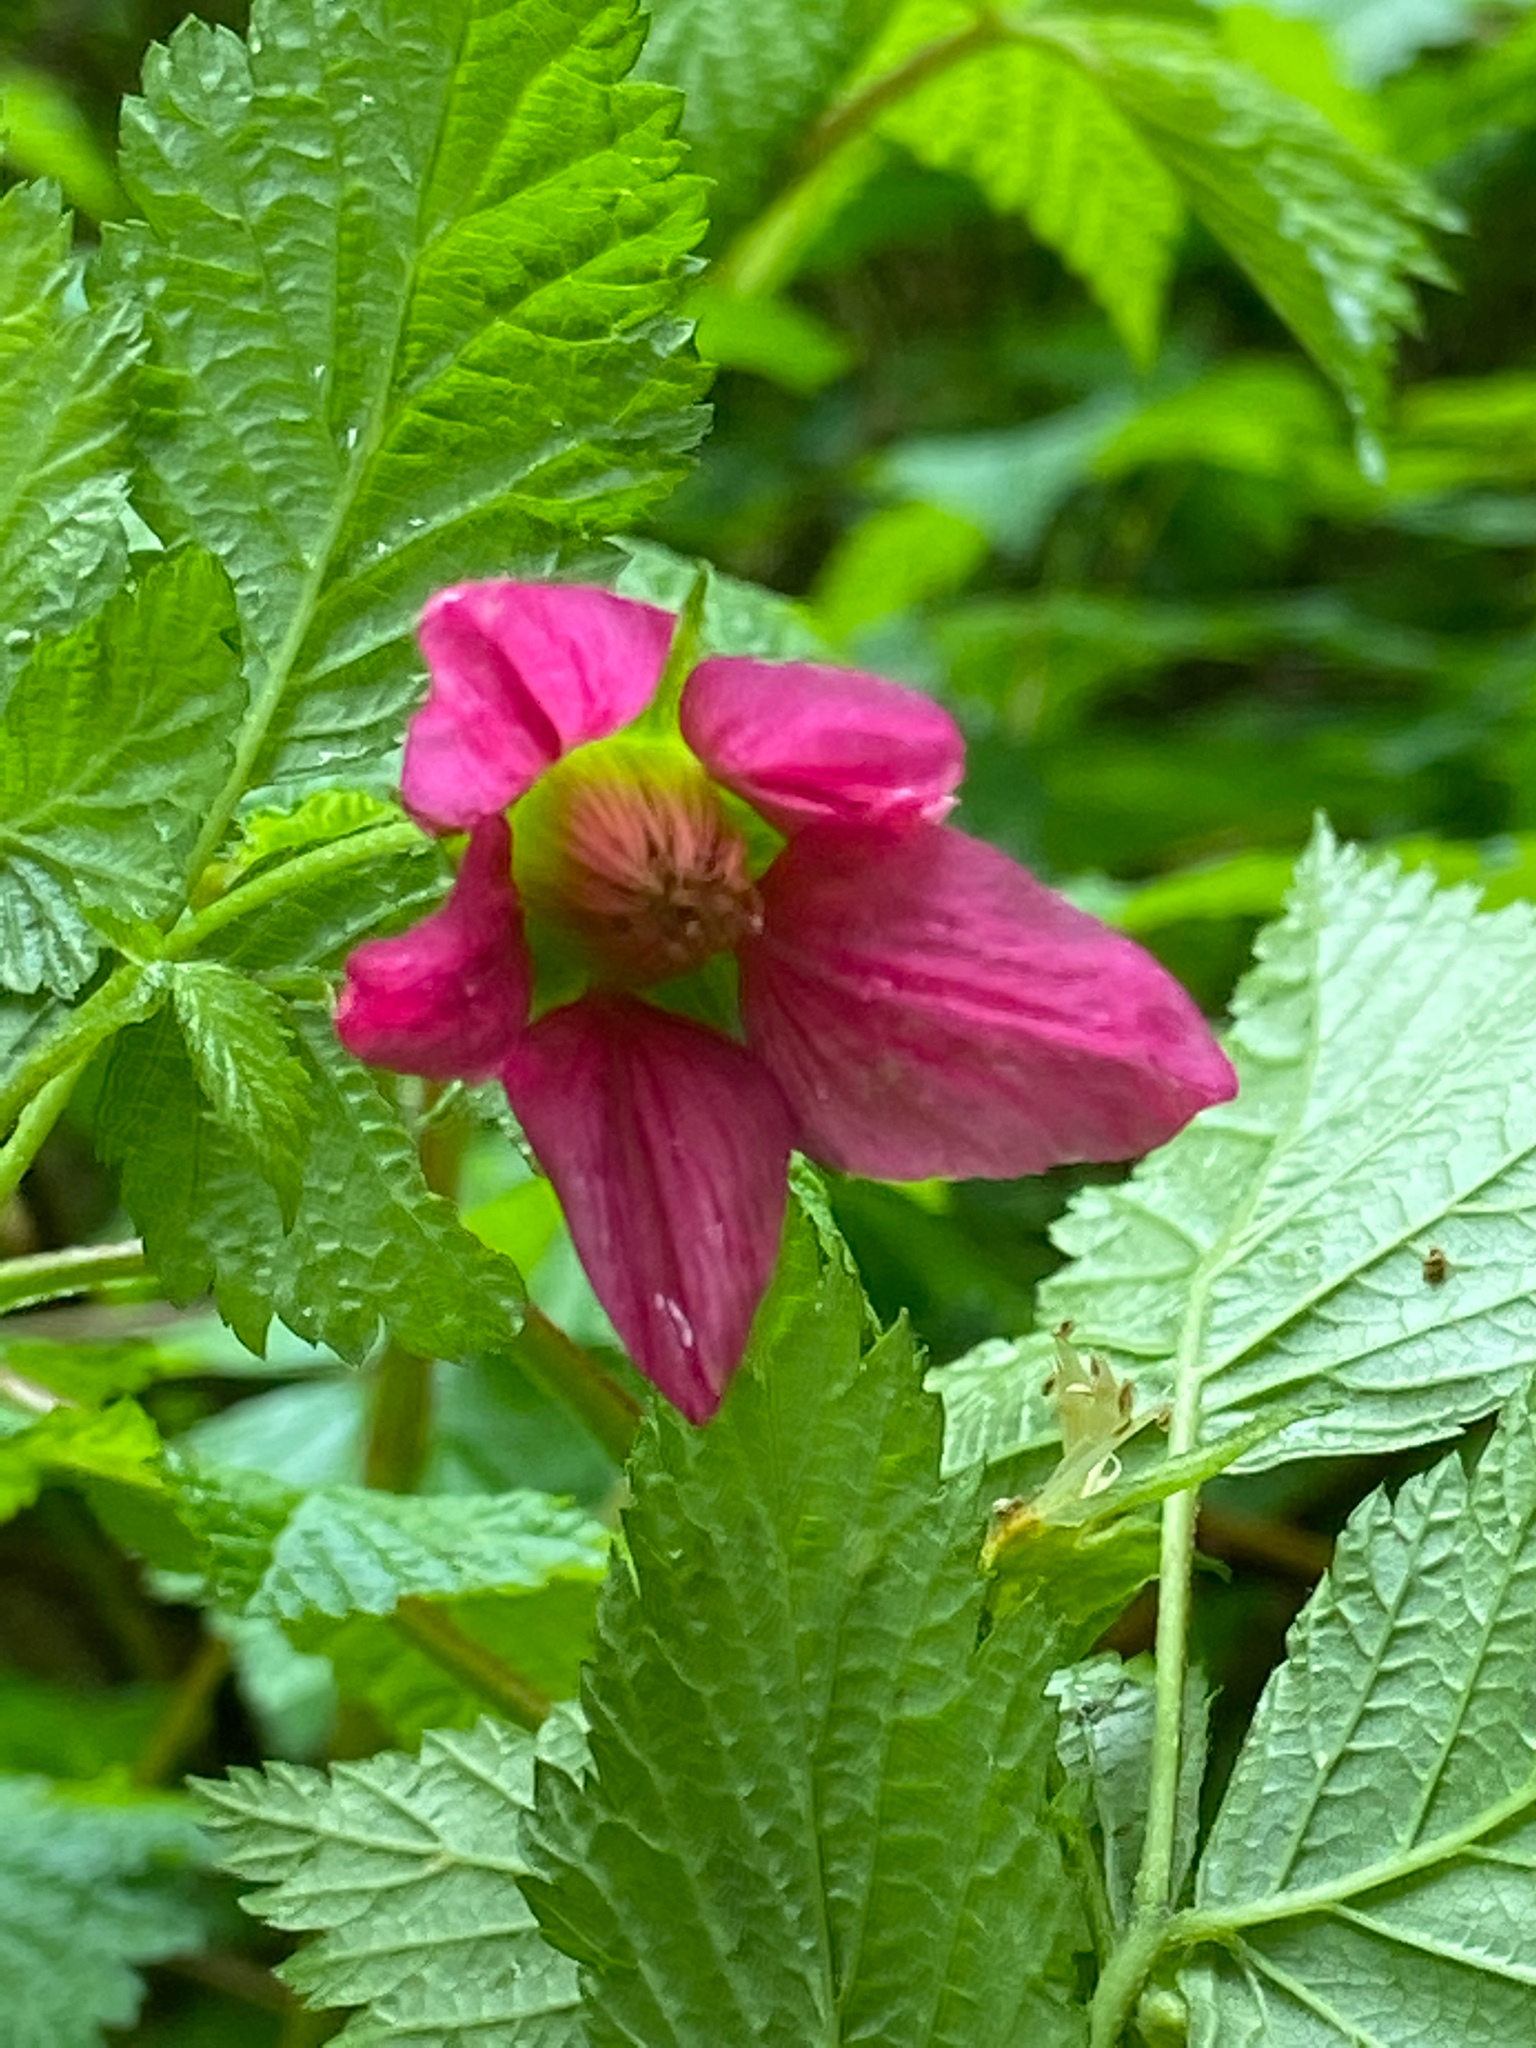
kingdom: Plantae
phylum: Tracheophyta
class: Magnoliopsida
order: Rosales
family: Rosaceae
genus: Rubus
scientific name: Rubus spectabilis
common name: Salmonberry
